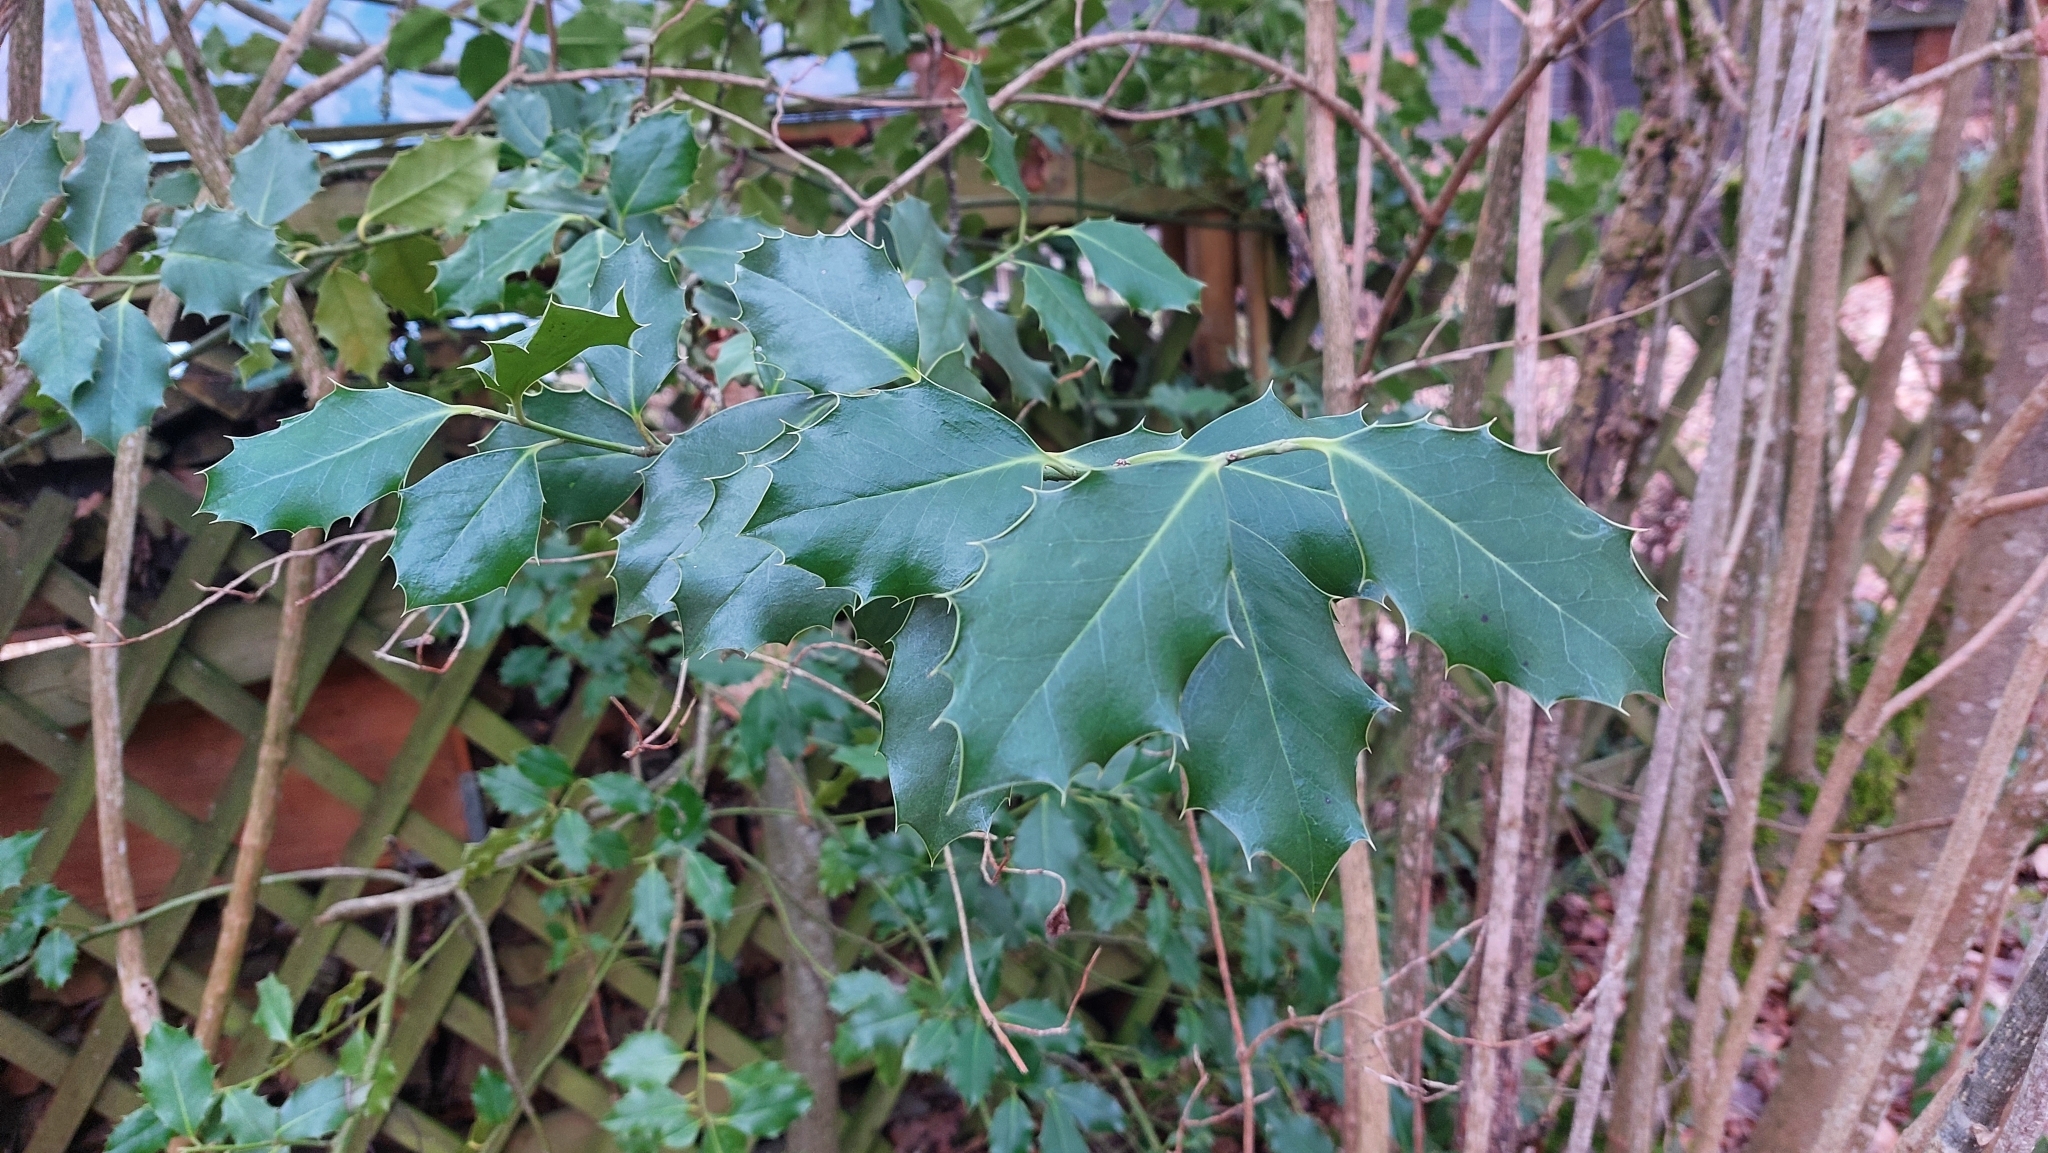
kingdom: Plantae
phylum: Tracheophyta
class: Magnoliopsida
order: Aquifoliales
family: Aquifoliaceae
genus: Ilex
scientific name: Ilex aquifolium
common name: English holly
